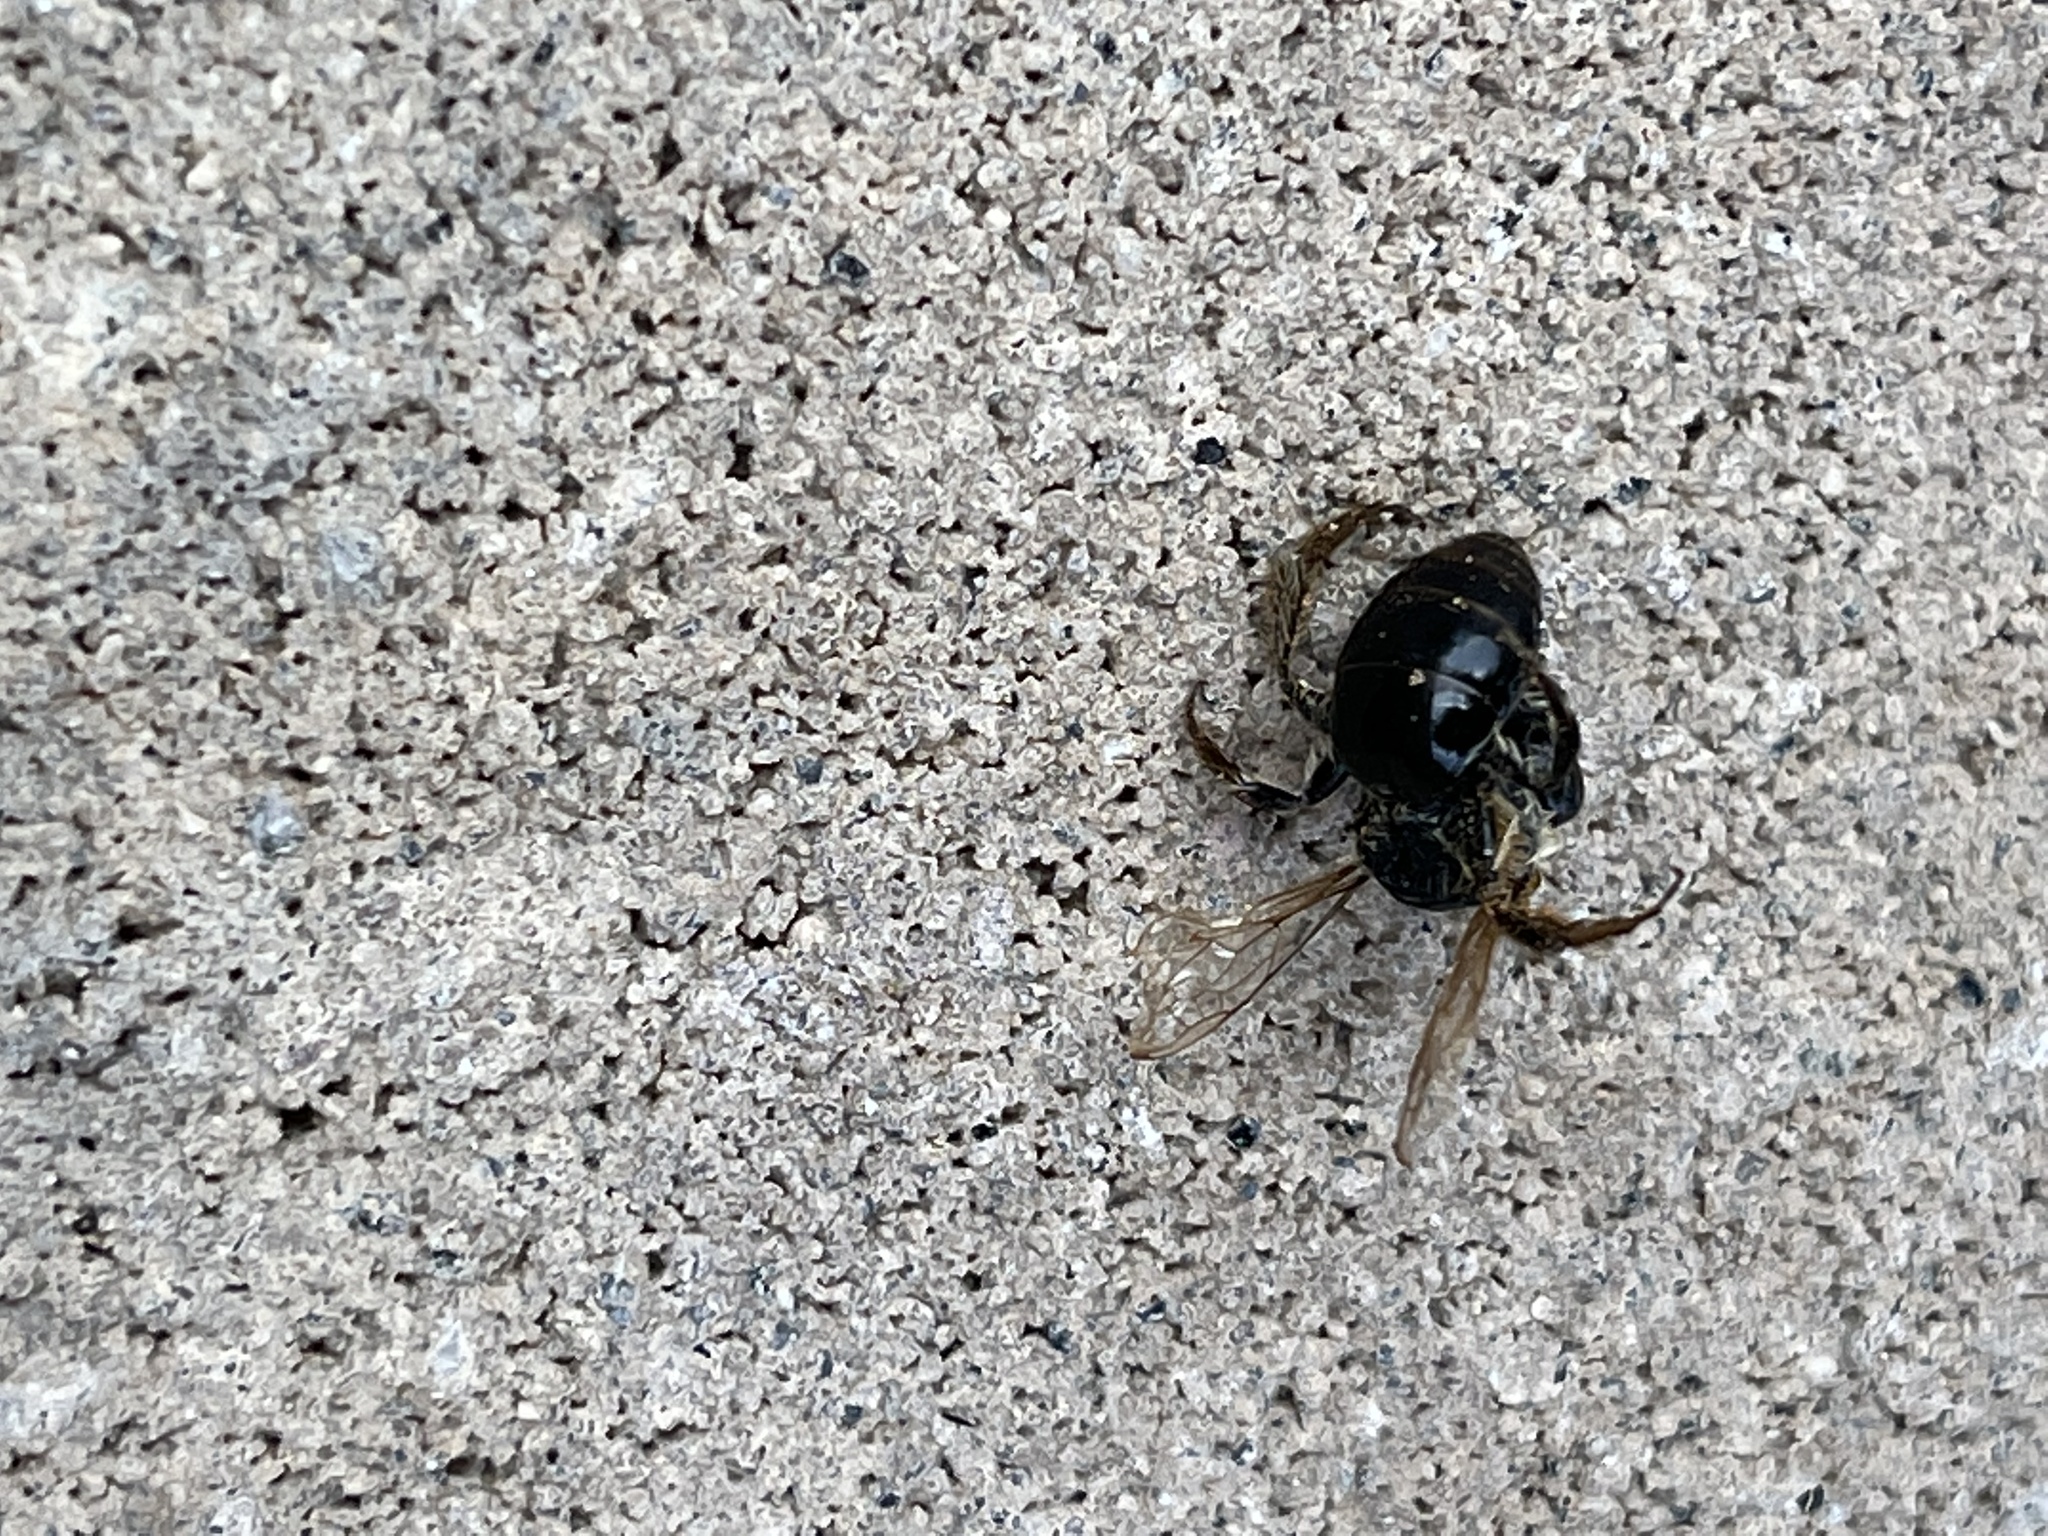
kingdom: Animalia
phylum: Arthropoda
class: Insecta
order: Hymenoptera
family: Apidae
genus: Xylocopa
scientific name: Xylocopa virginica
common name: Carpenter bee
